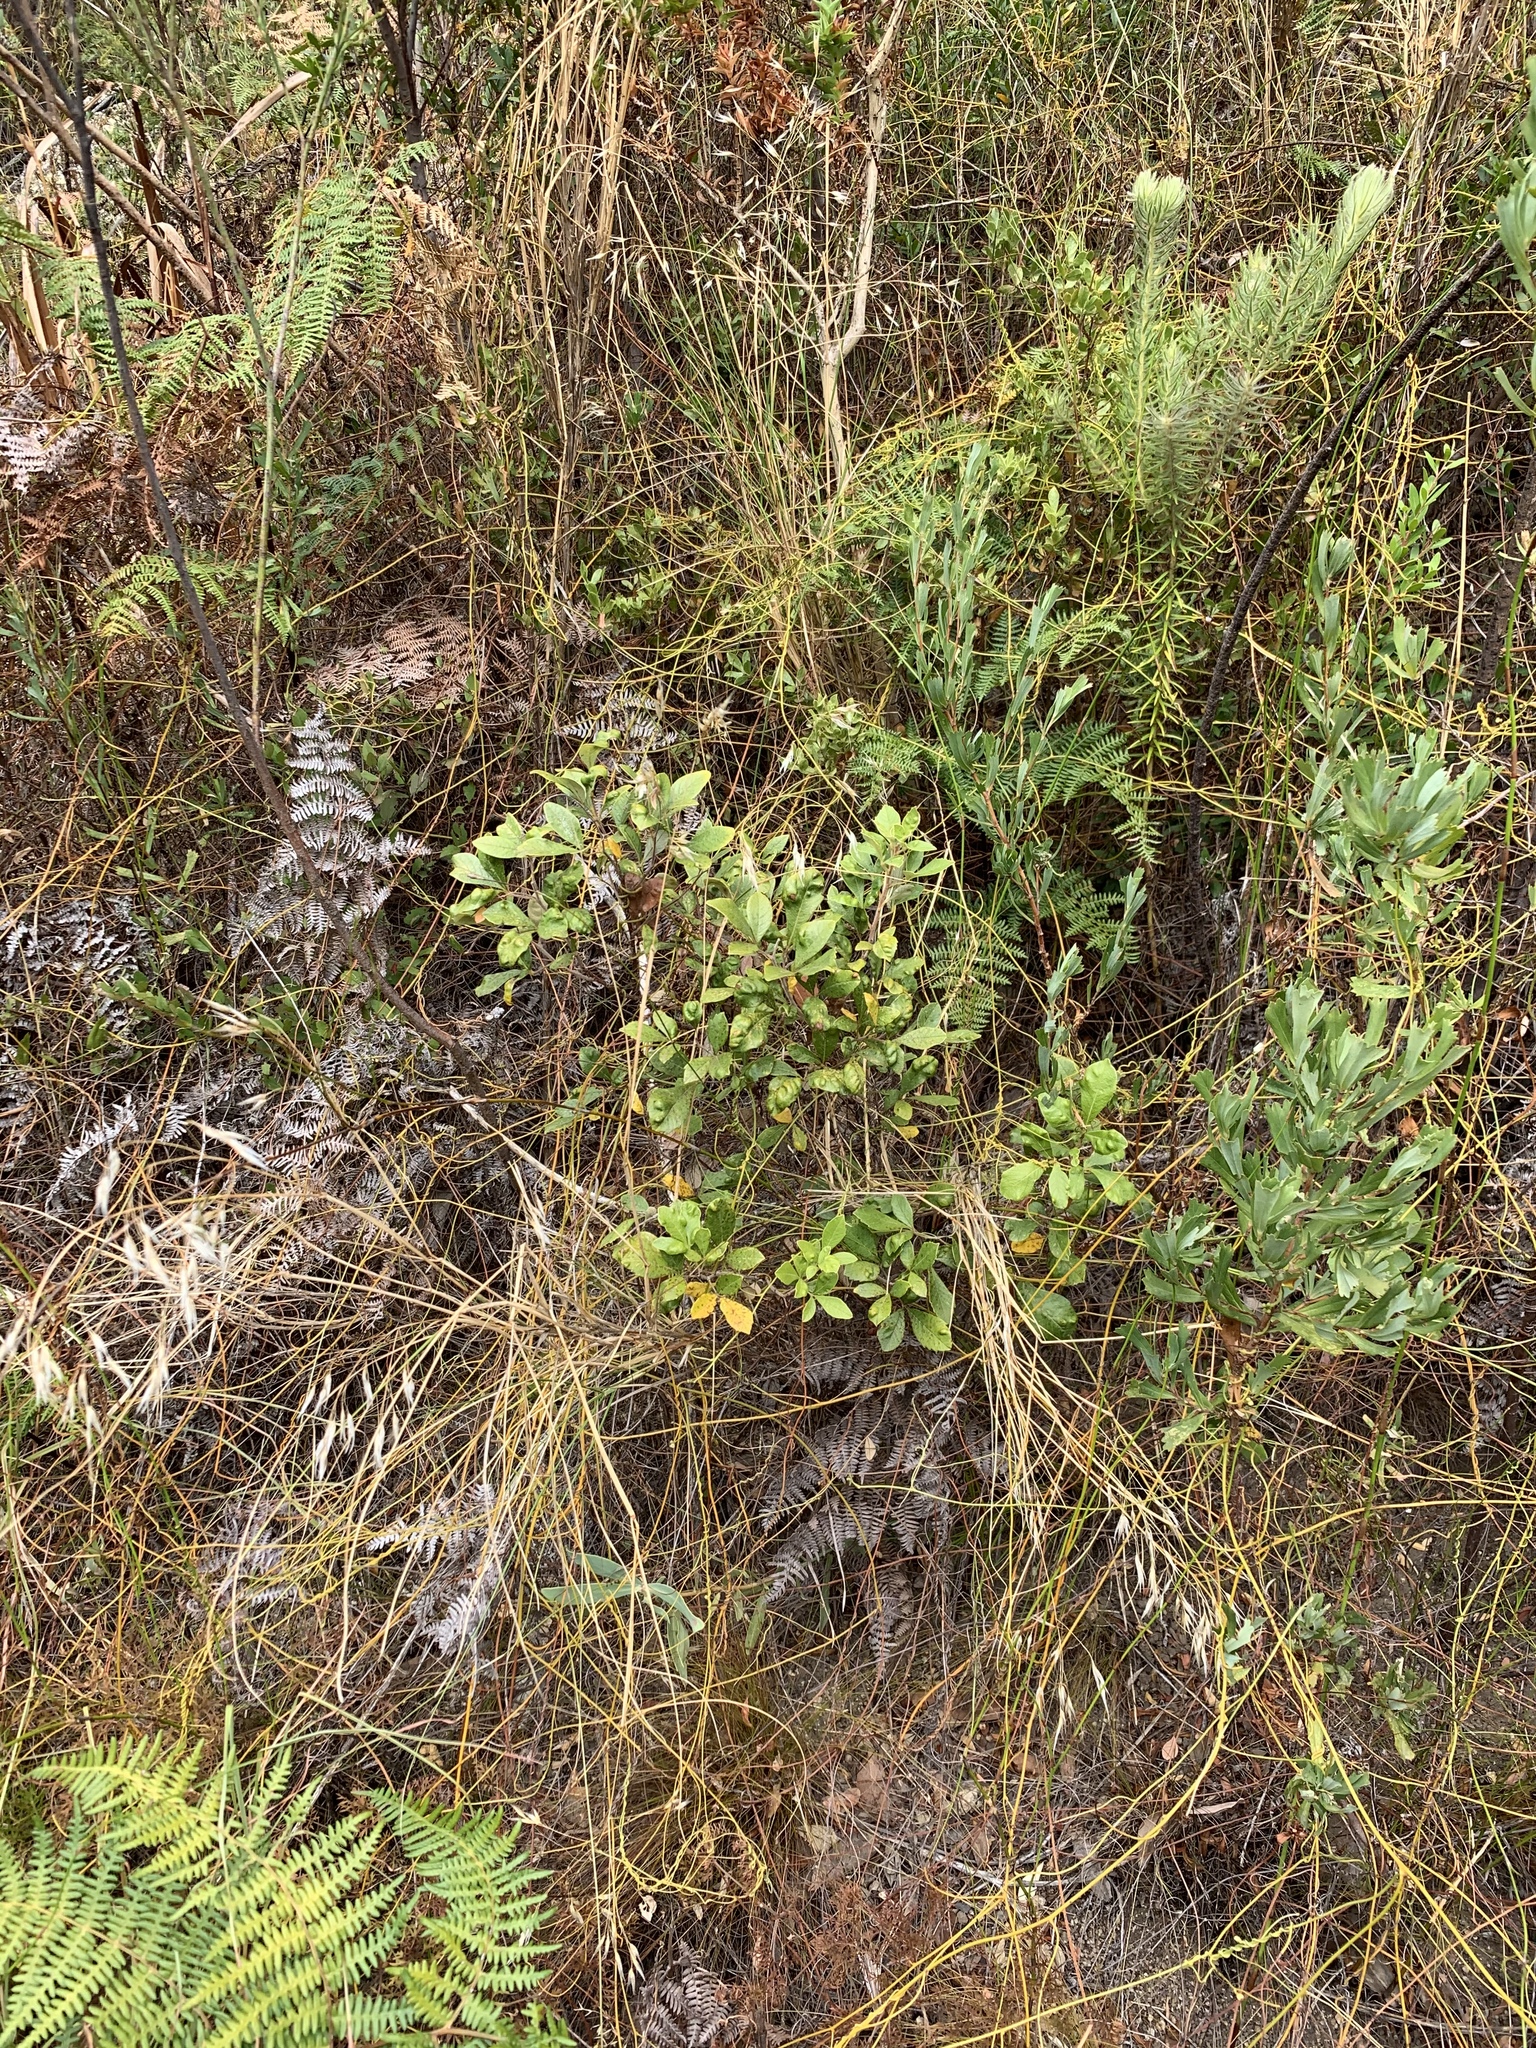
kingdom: Plantae
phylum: Tracheophyta
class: Magnoliopsida
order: Sapindales
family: Anacardiaceae
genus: Searsia
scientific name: Searsia tomentosa
